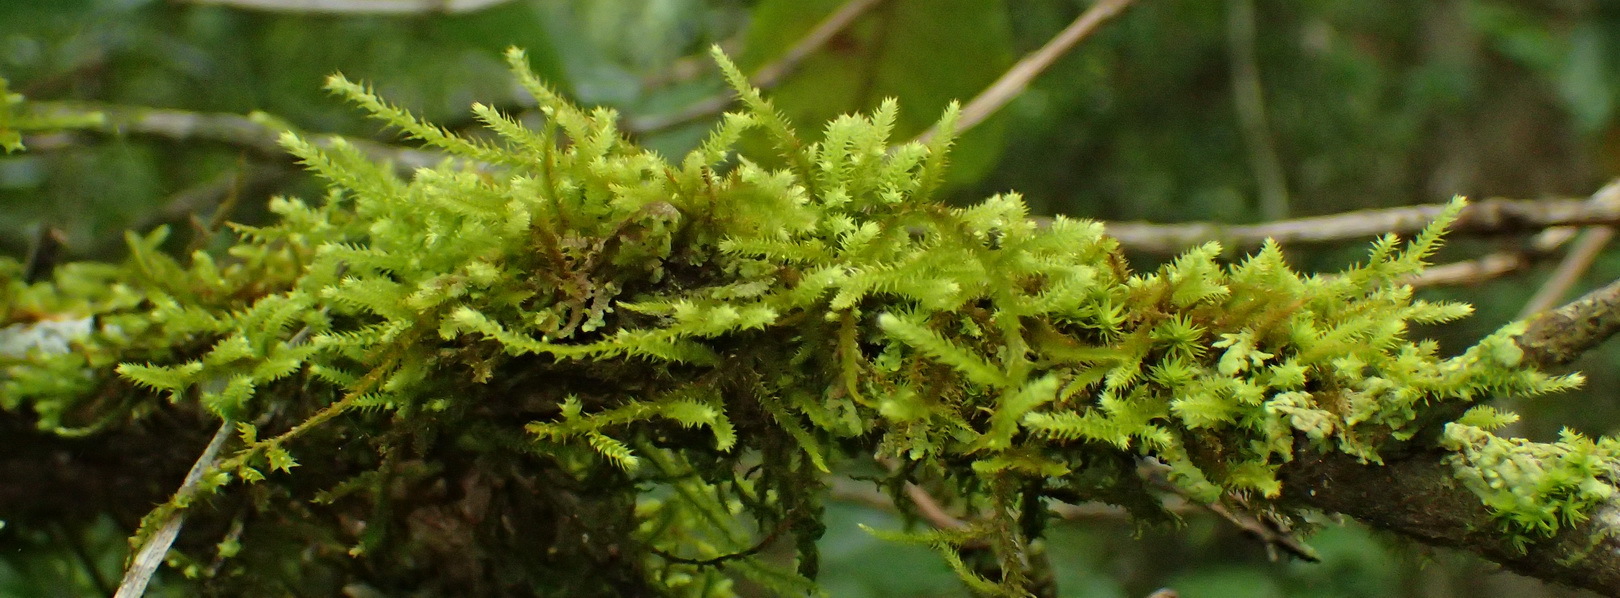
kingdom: Plantae
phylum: Bryophyta
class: Bryopsida
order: Hypnales
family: Meteoriaceae
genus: Papillaria
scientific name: Papillaria africana
